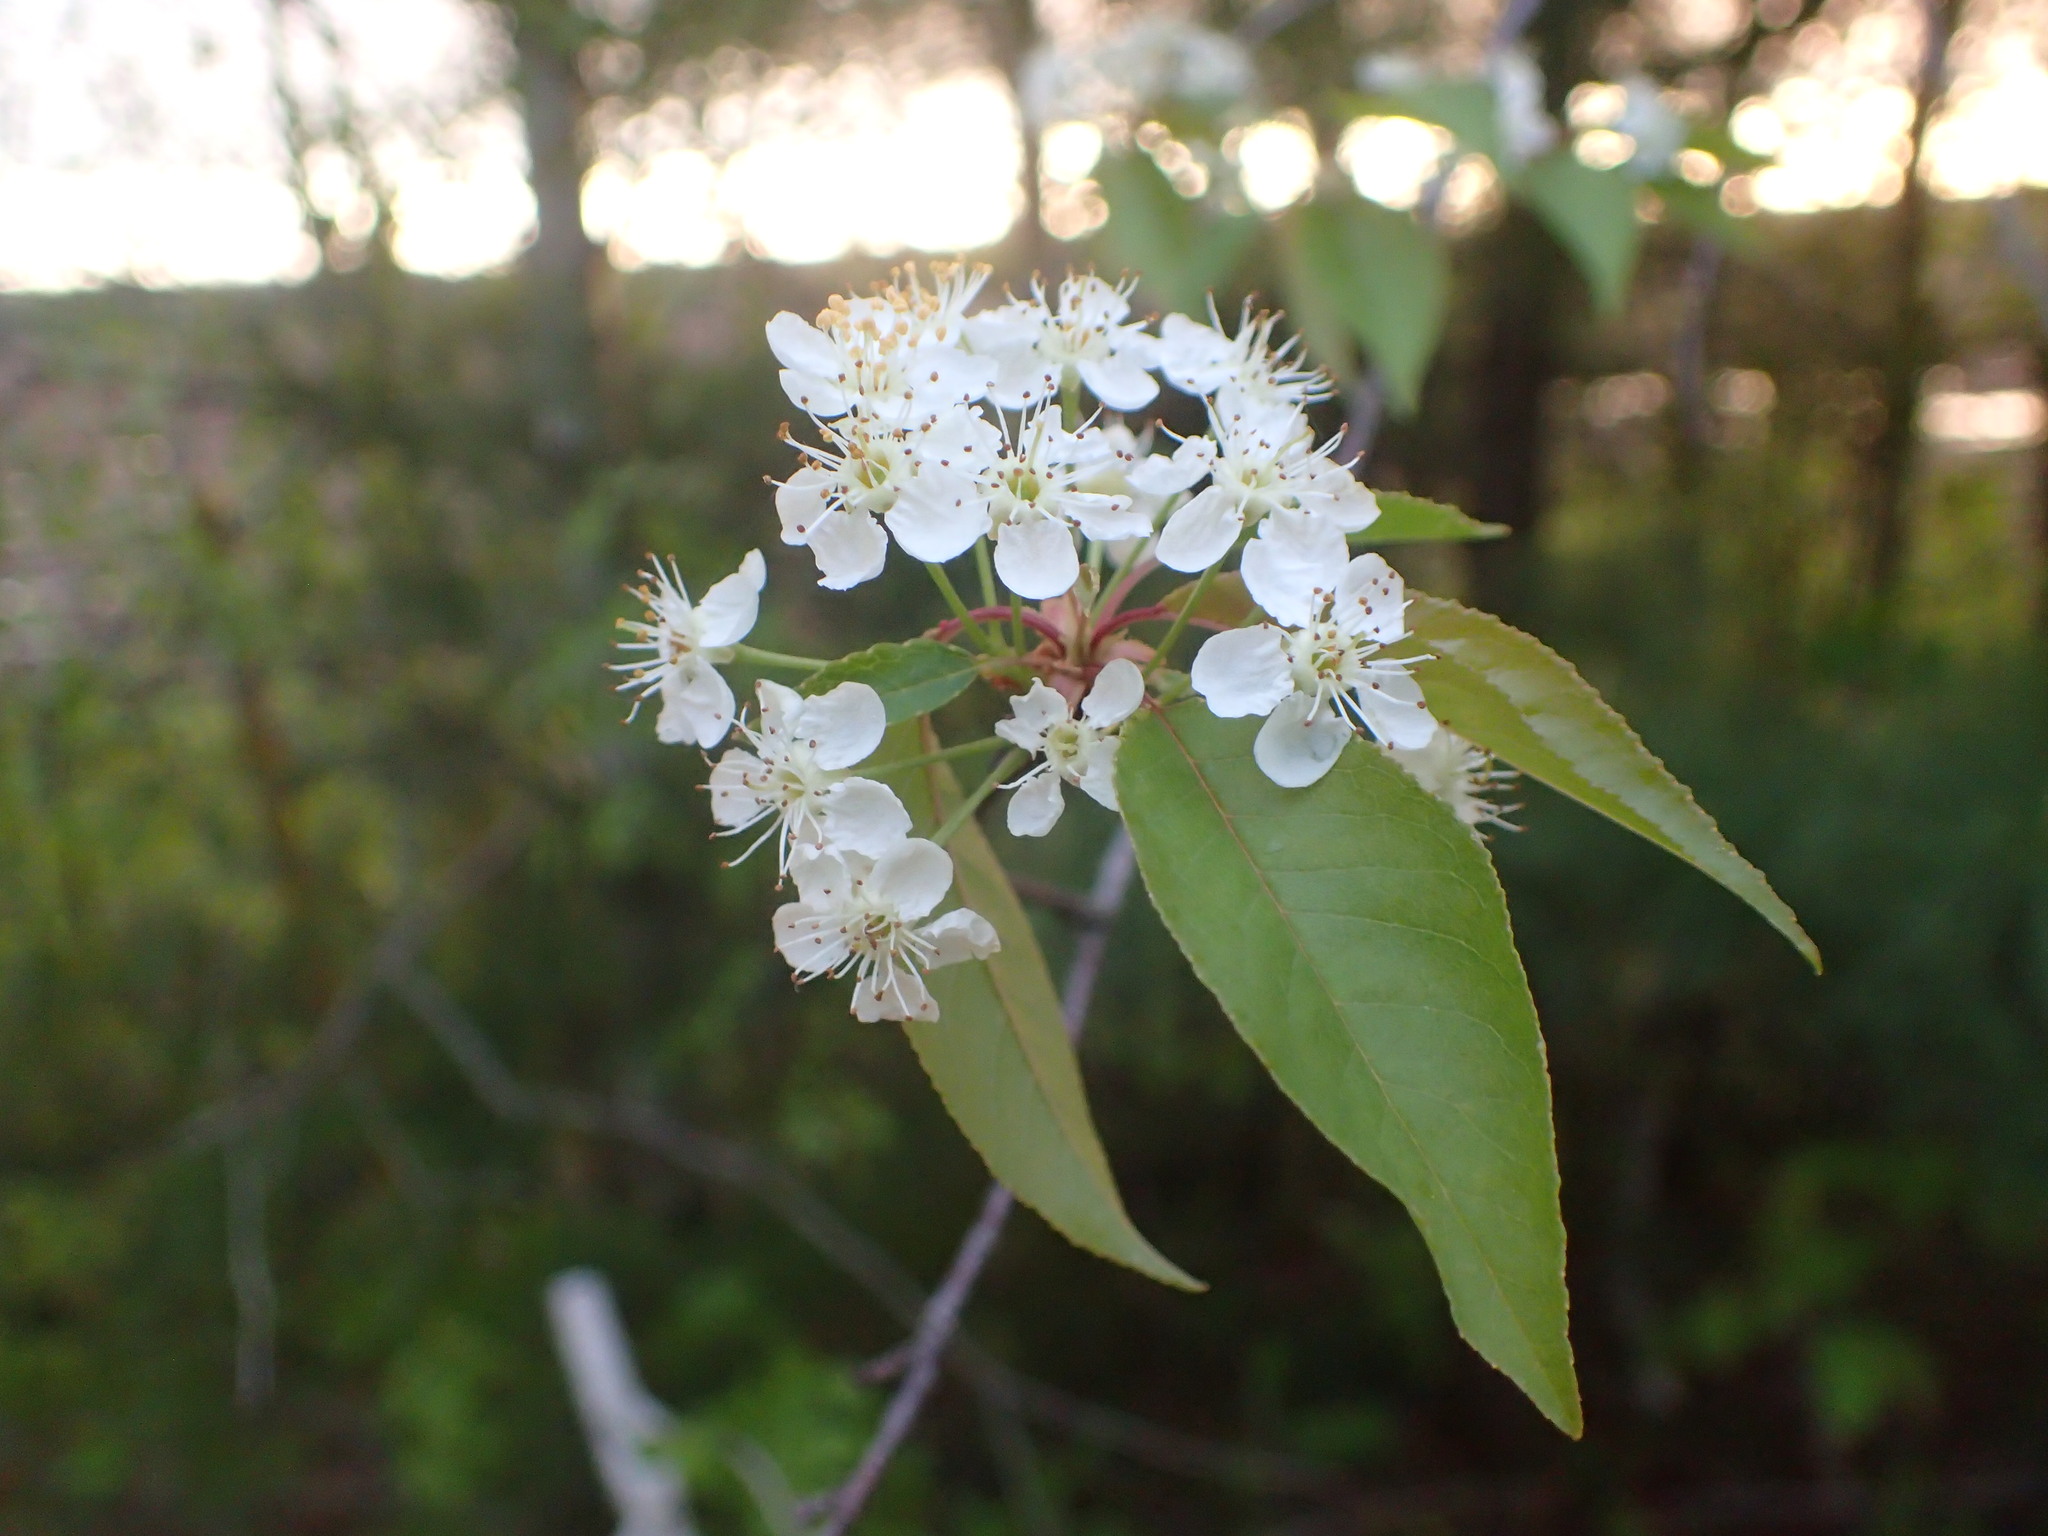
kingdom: Plantae
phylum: Tracheophyta
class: Magnoliopsida
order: Rosales
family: Rosaceae
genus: Prunus
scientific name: Prunus pensylvanica
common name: Pin cherry
